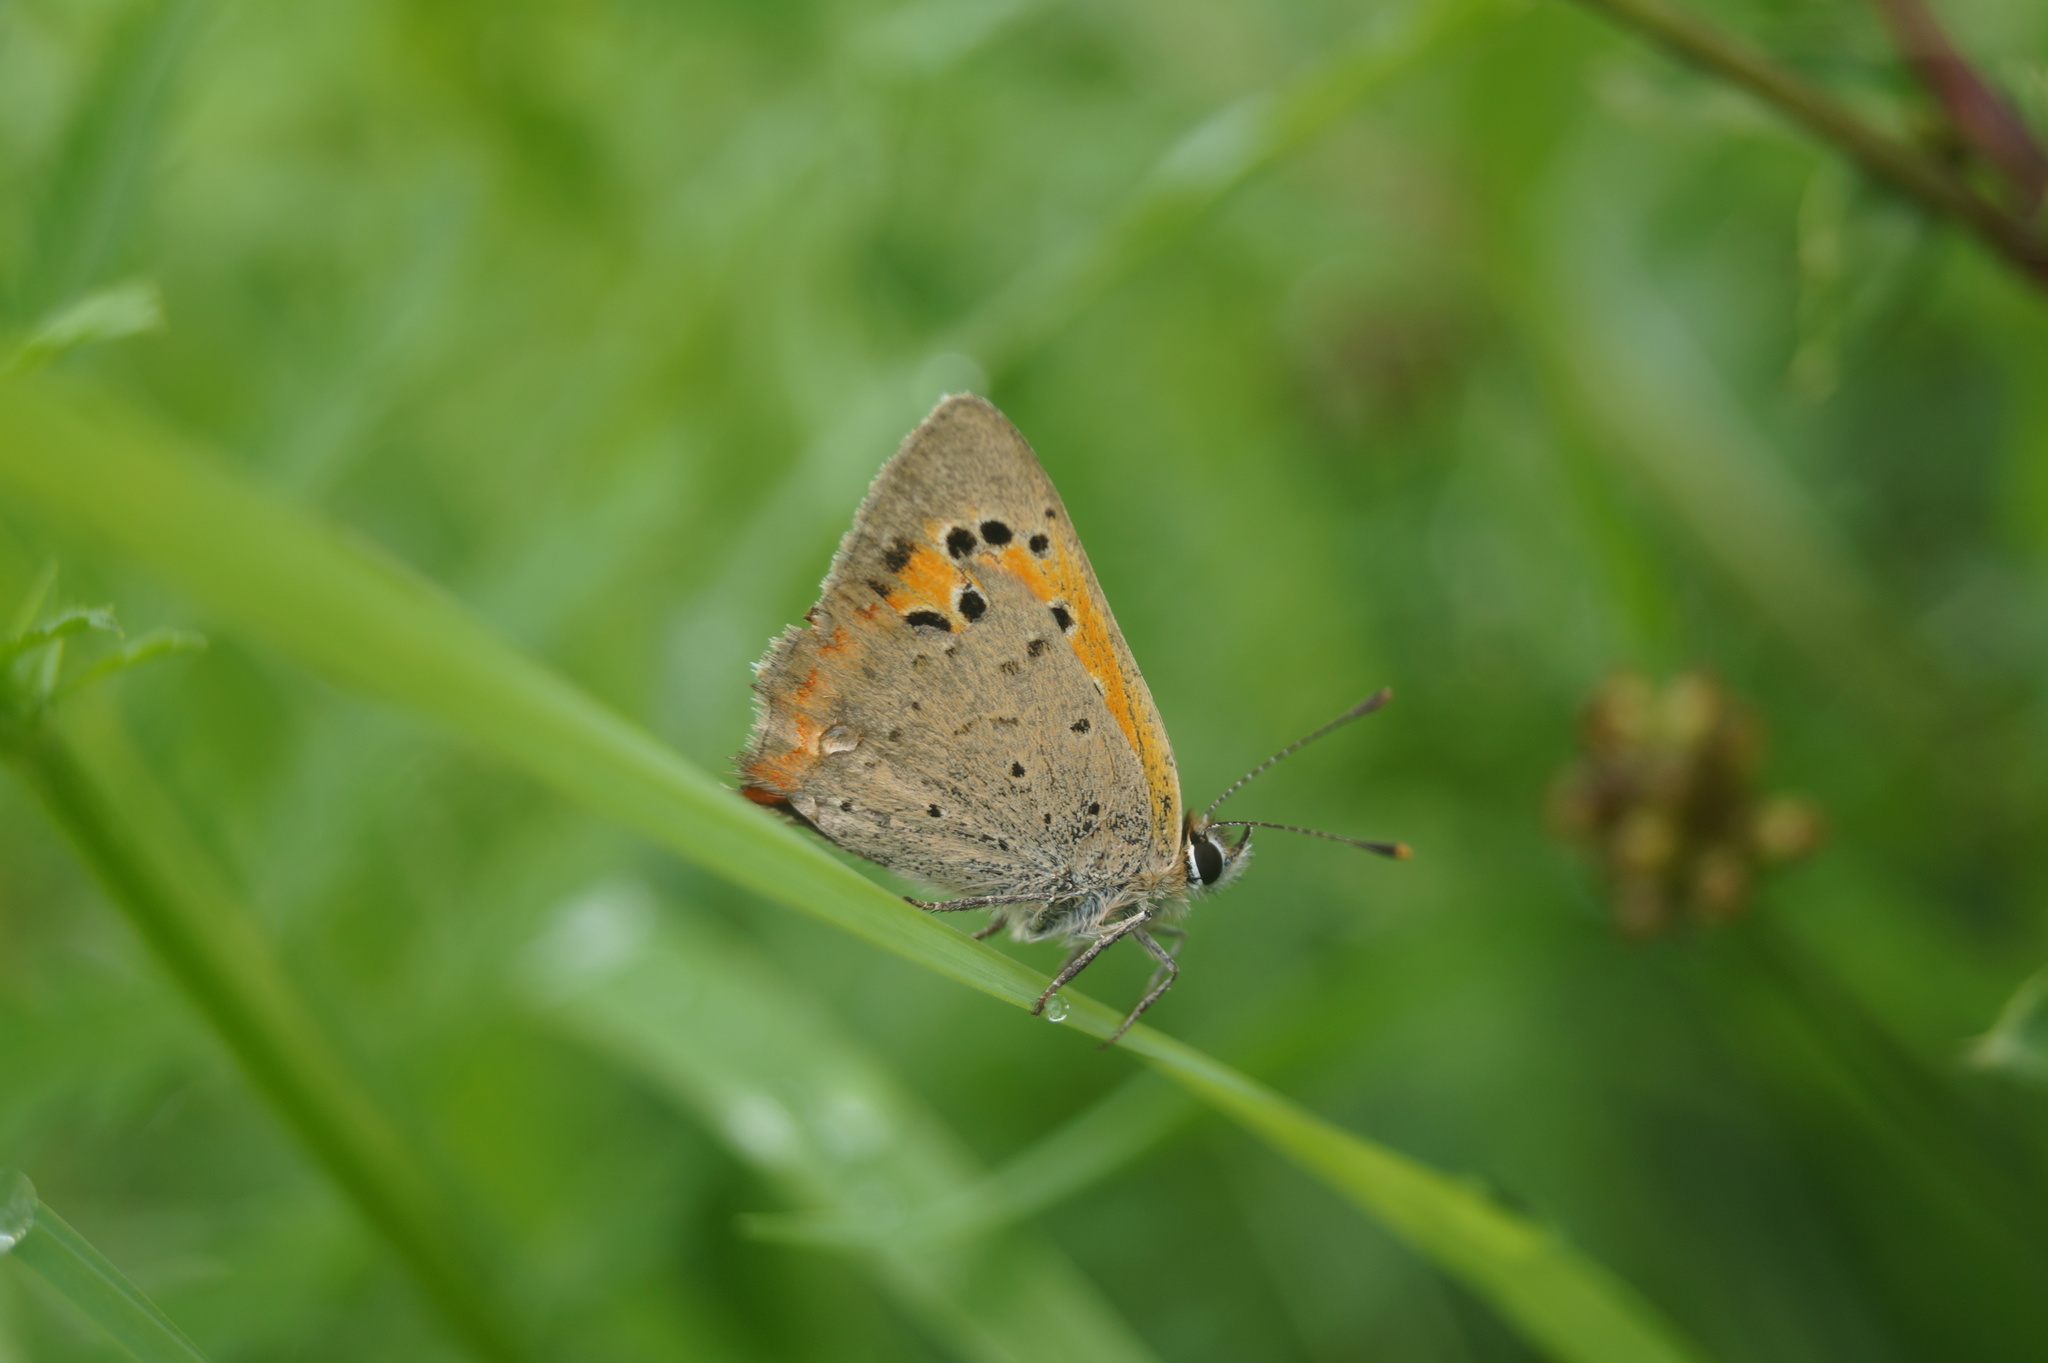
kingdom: Animalia
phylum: Arthropoda
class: Insecta
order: Lepidoptera
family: Lycaenidae
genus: Lycaena
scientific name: Lycaena phlaeas
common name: Small copper
